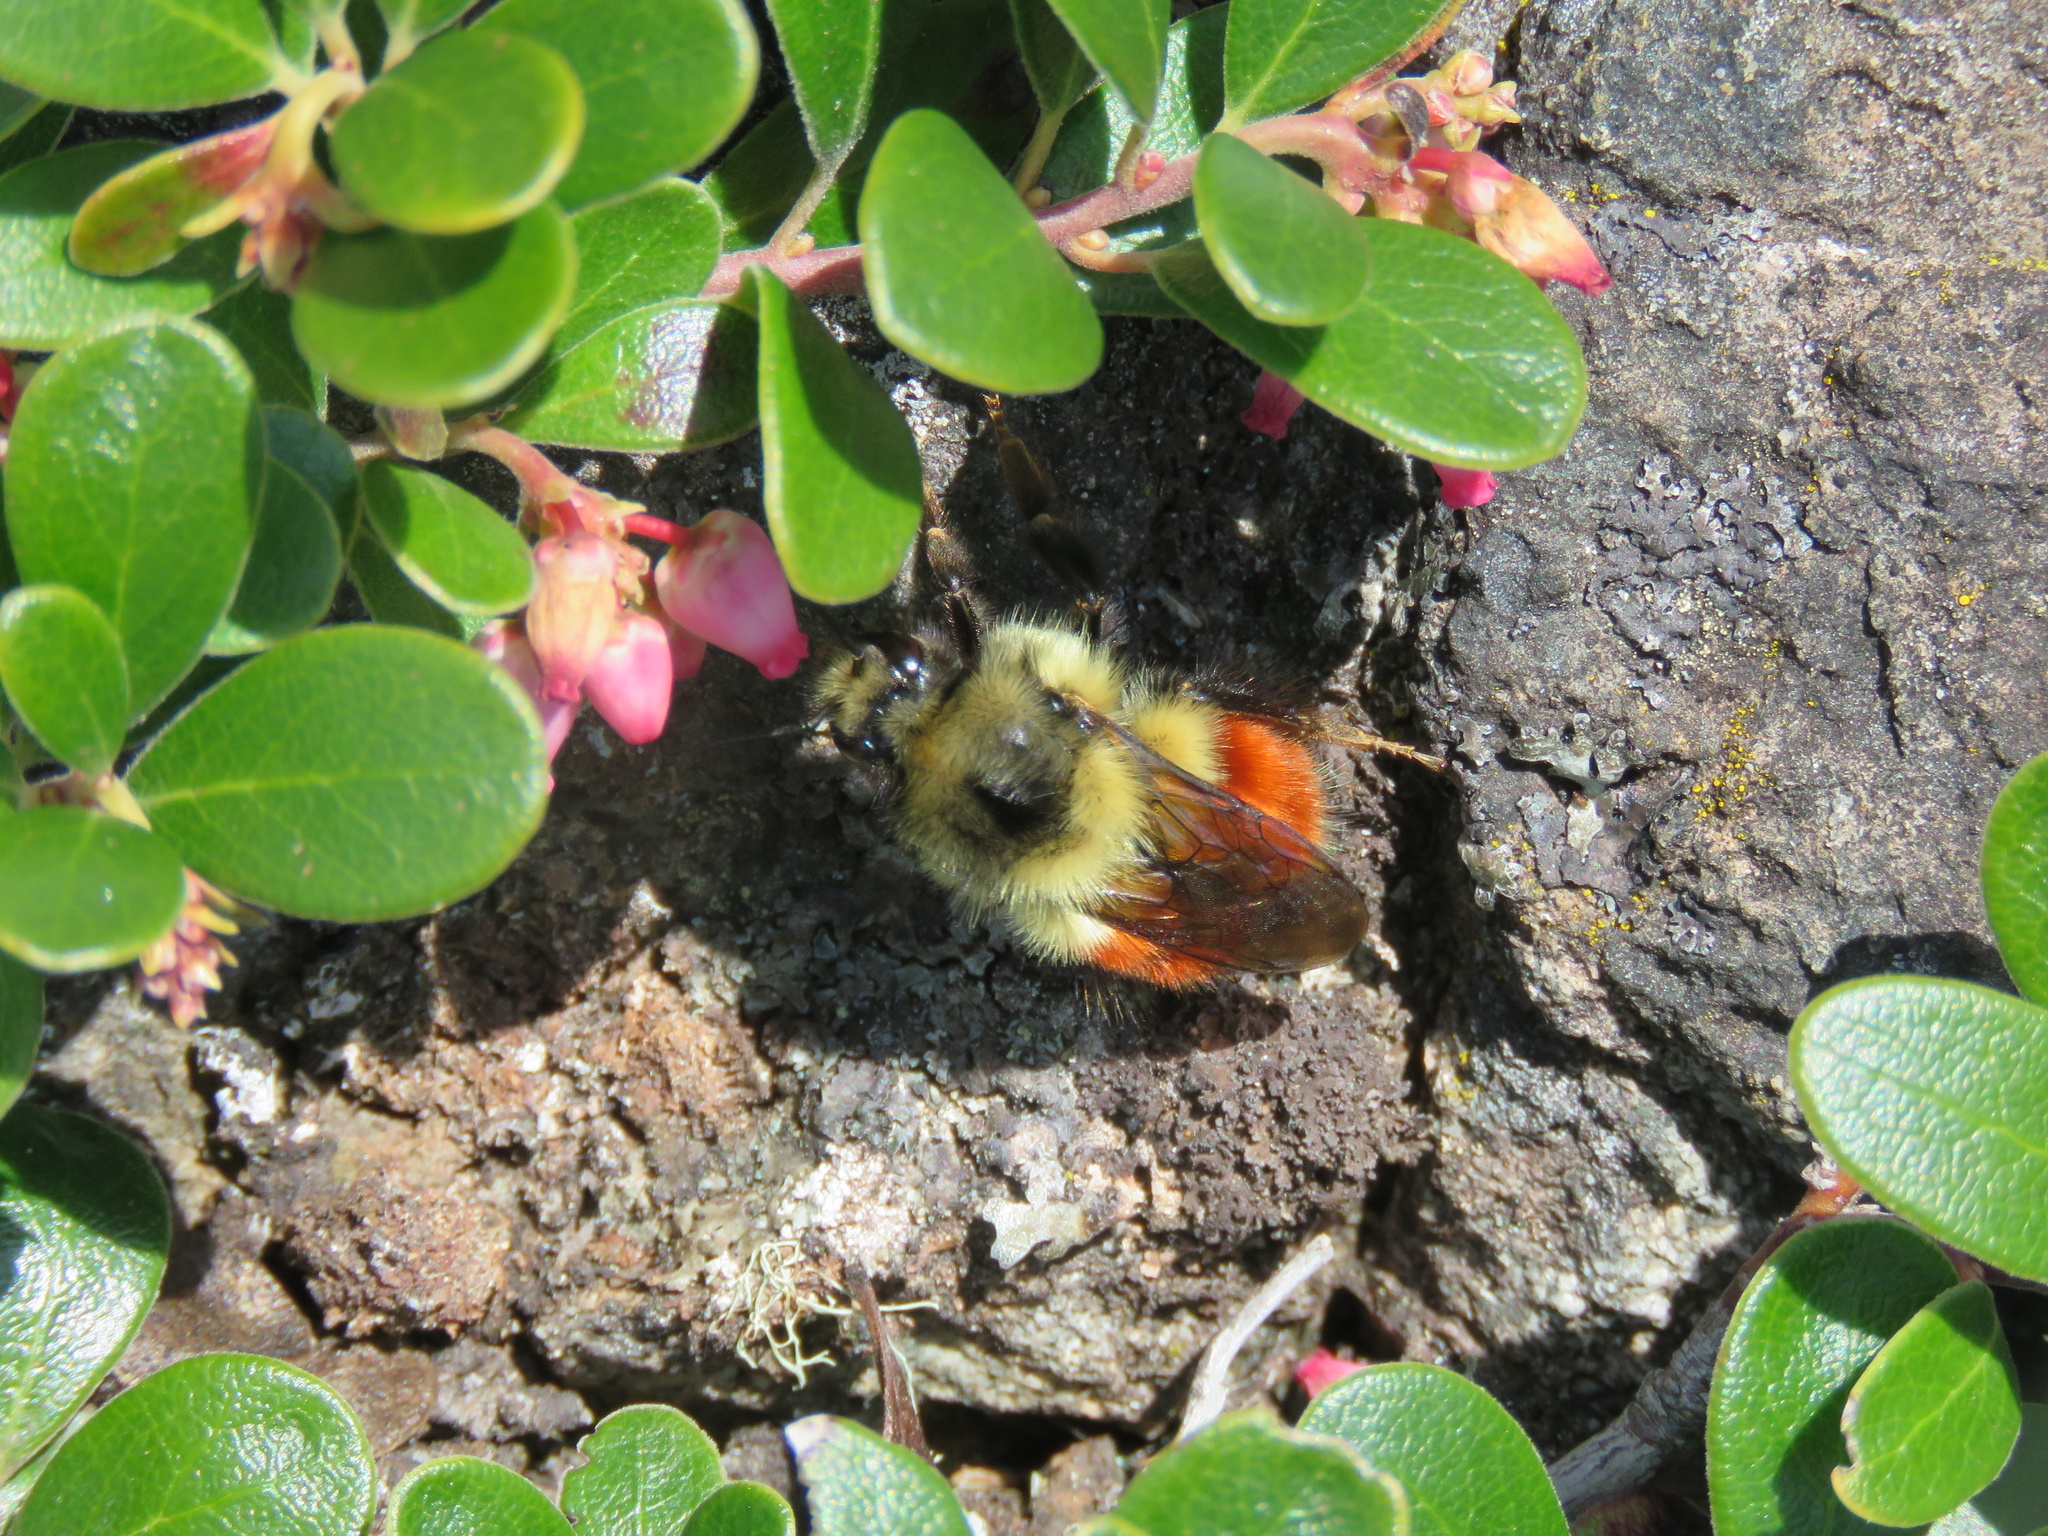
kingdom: Animalia
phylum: Arthropoda
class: Insecta
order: Hymenoptera
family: Apidae
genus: Bombus
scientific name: Bombus melanopygus
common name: Black tail bumble bee
